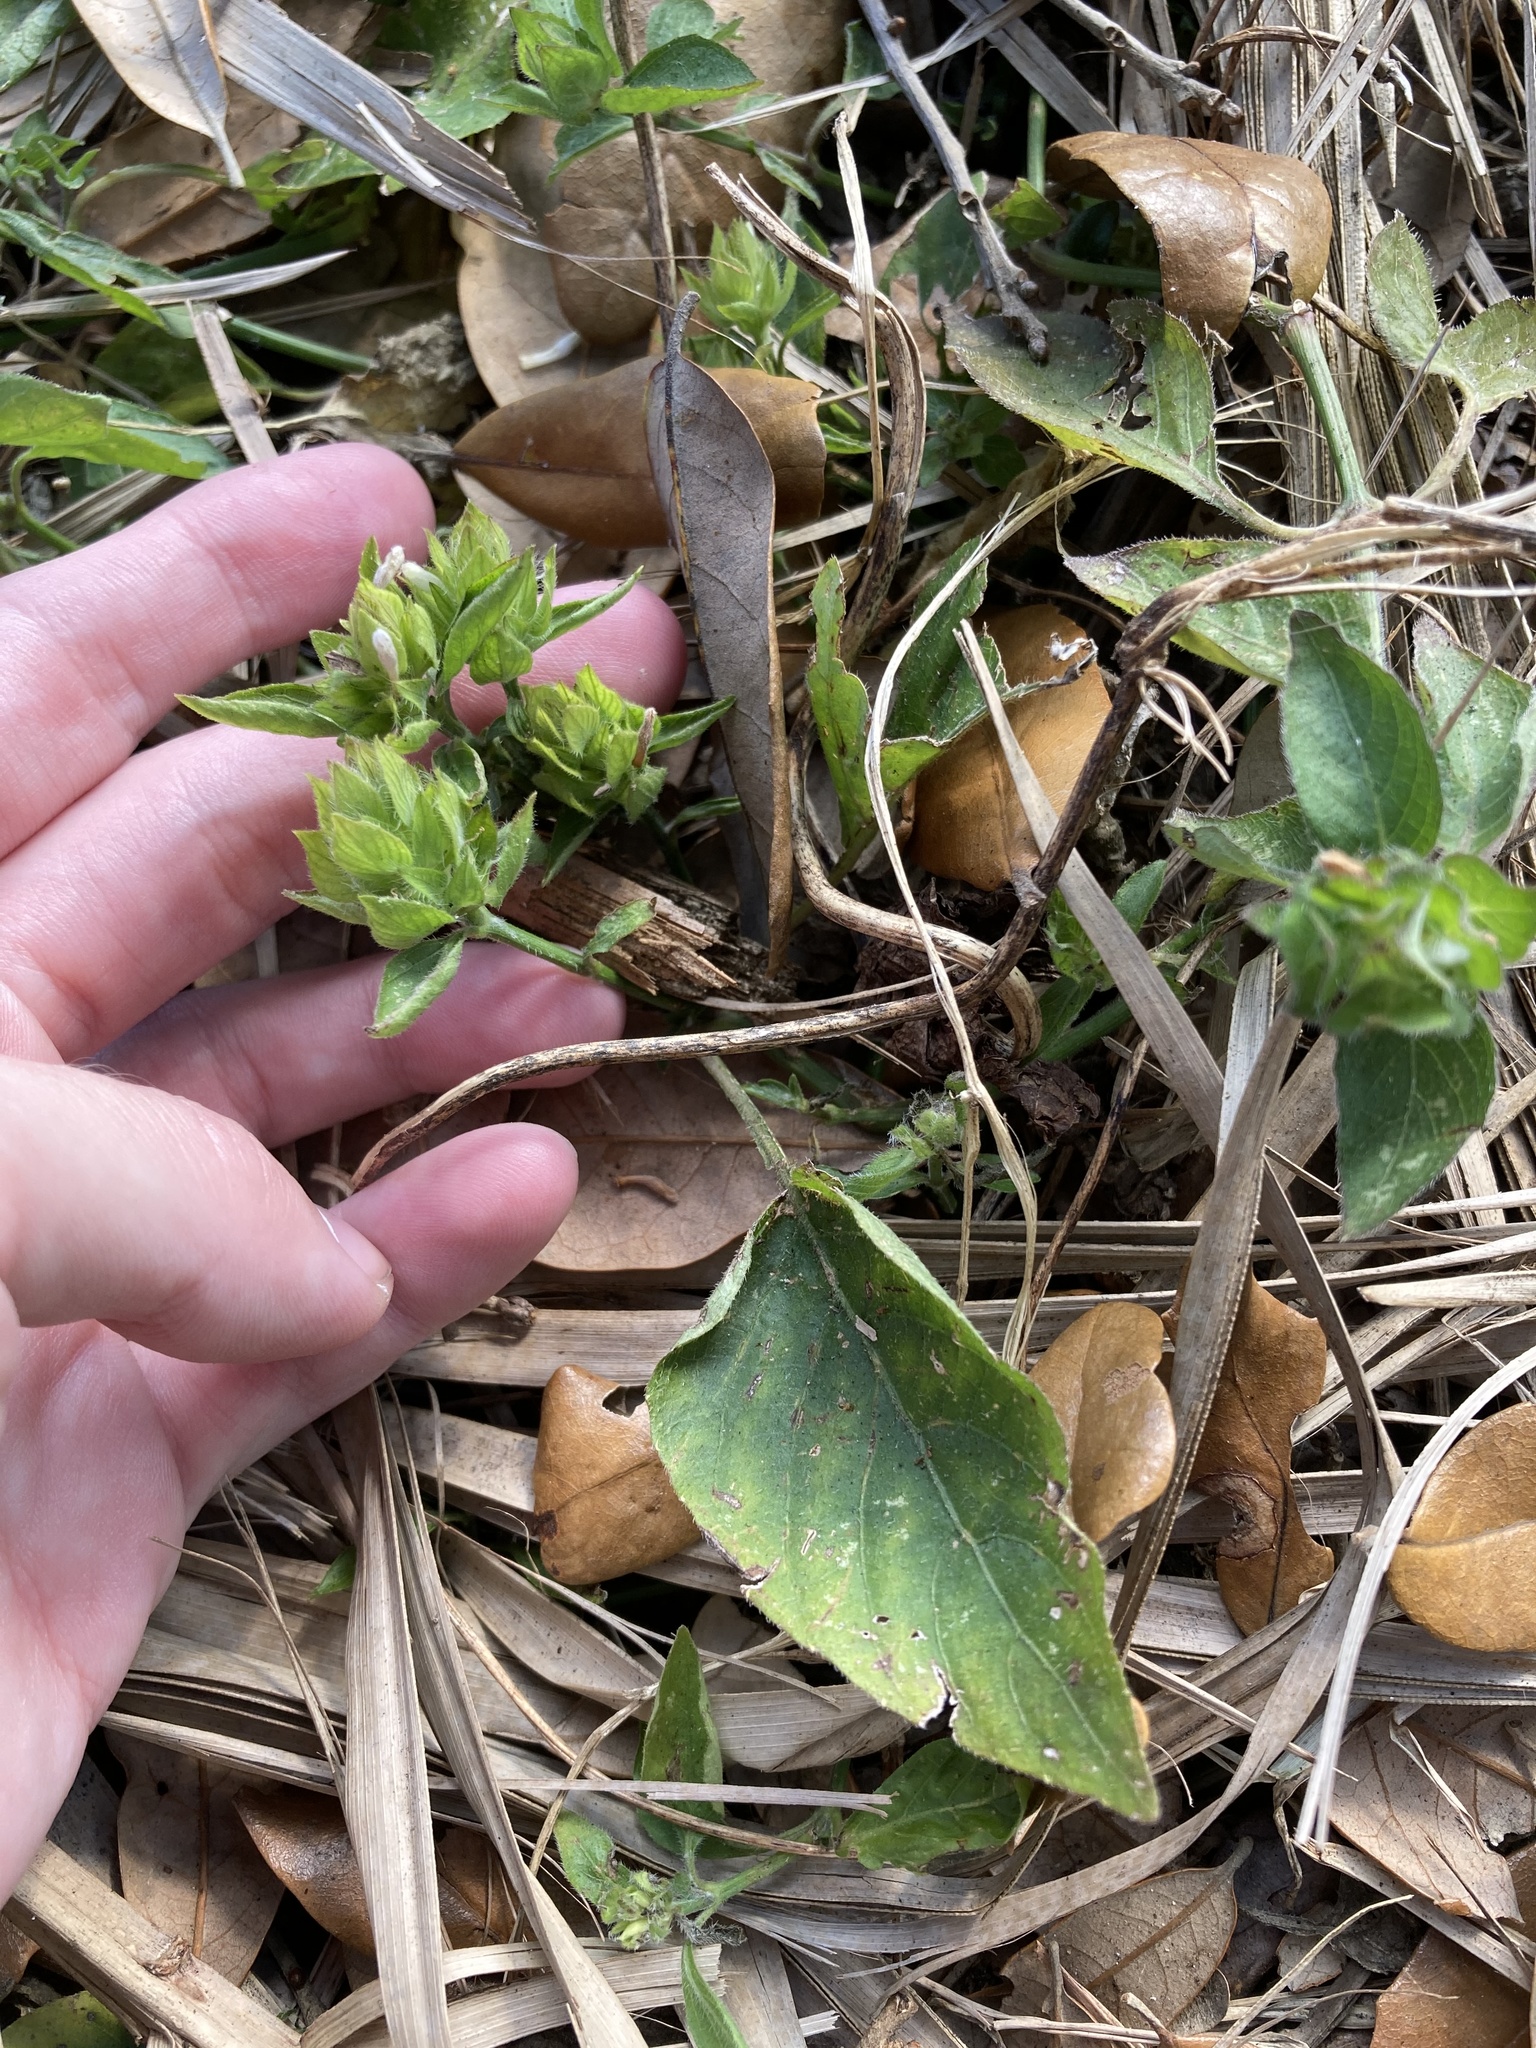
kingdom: Plantae
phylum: Tracheophyta
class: Magnoliopsida
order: Lamiales
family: Acanthaceae
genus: Ruellia
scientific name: Ruellia blechum
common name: Browne's blechum
